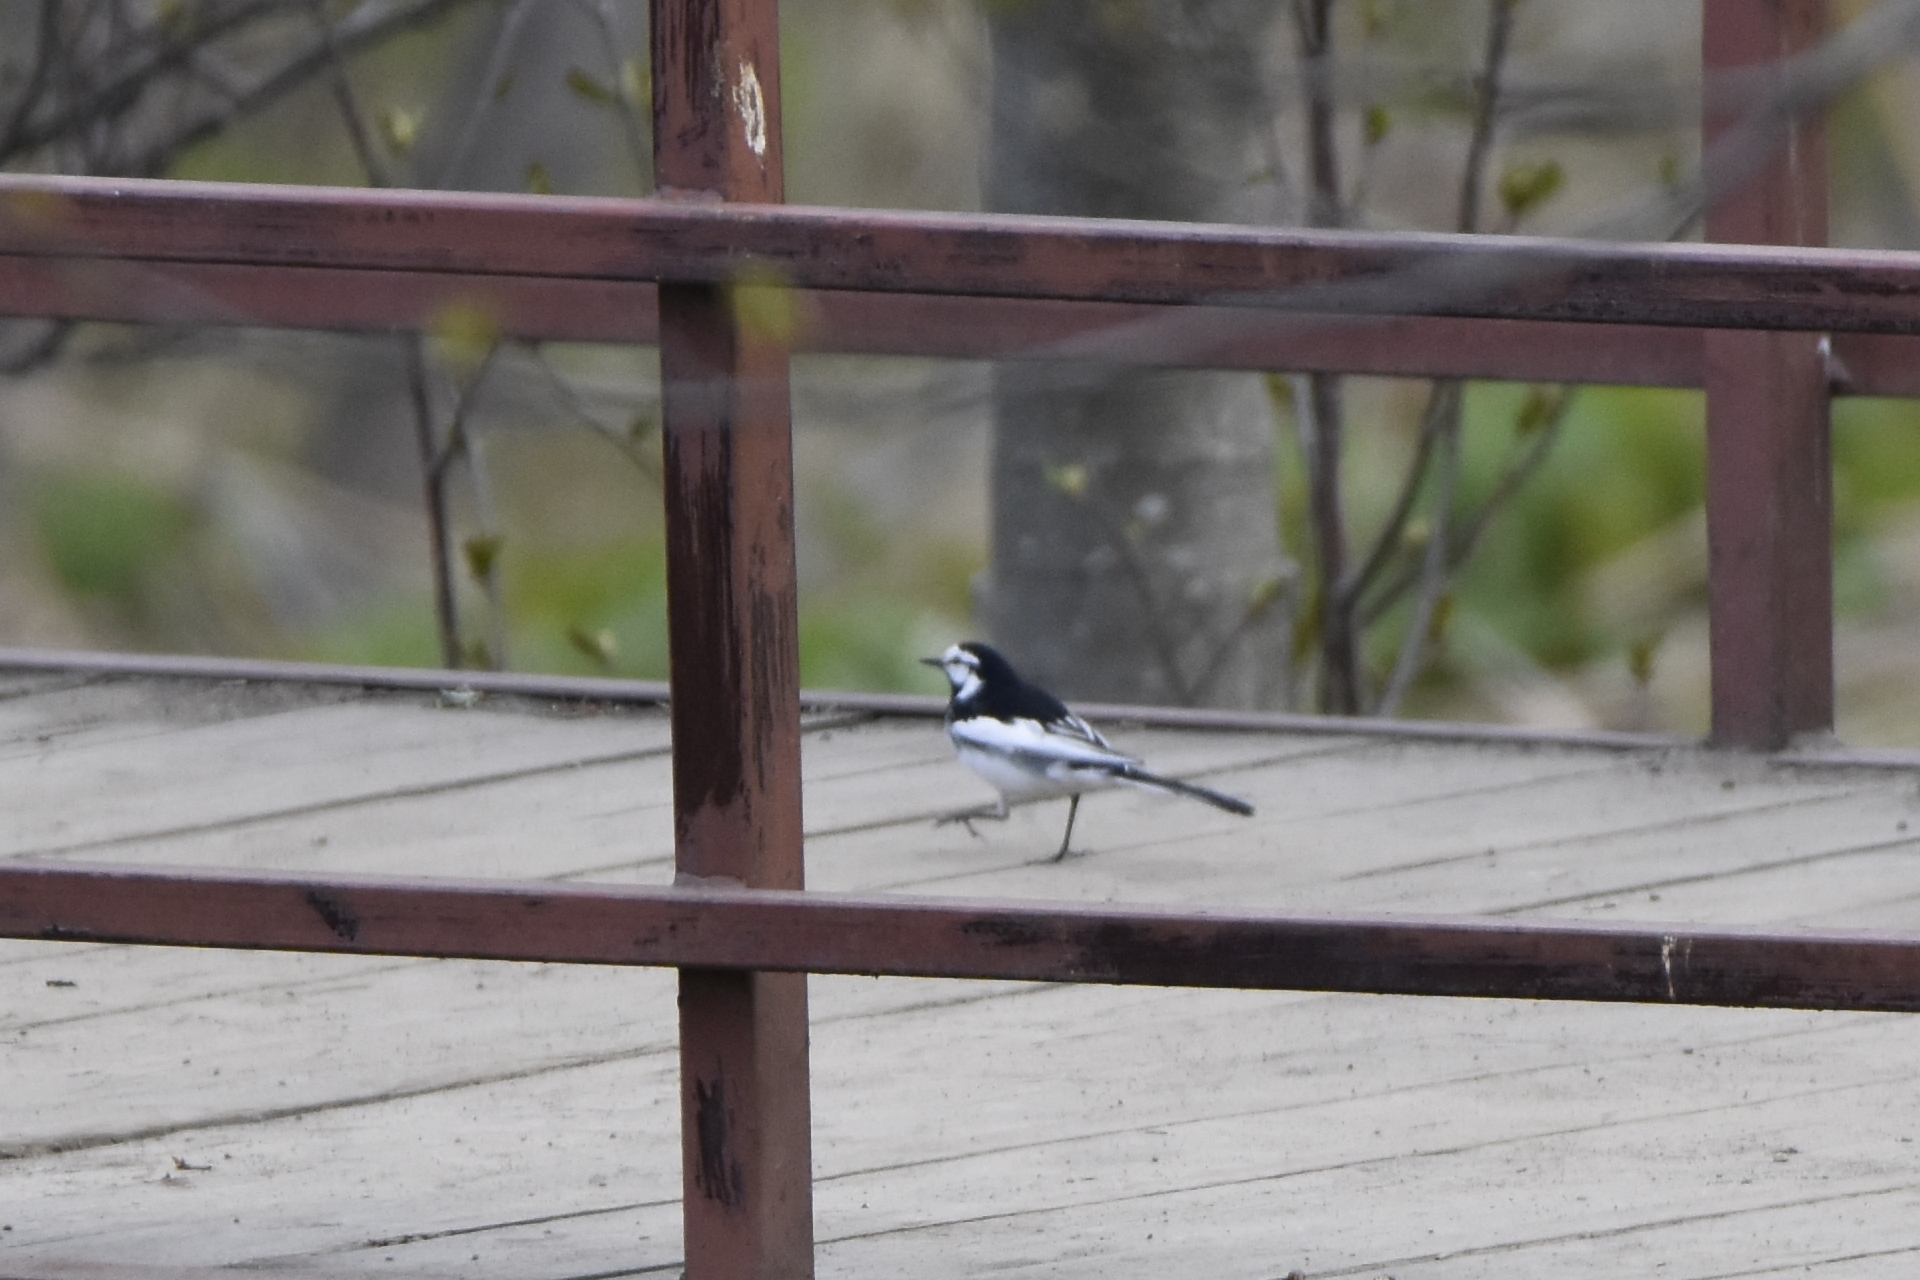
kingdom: Animalia
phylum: Chordata
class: Aves
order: Passeriformes
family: Motacillidae
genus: Motacilla
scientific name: Motacilla alba
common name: White wagtail
